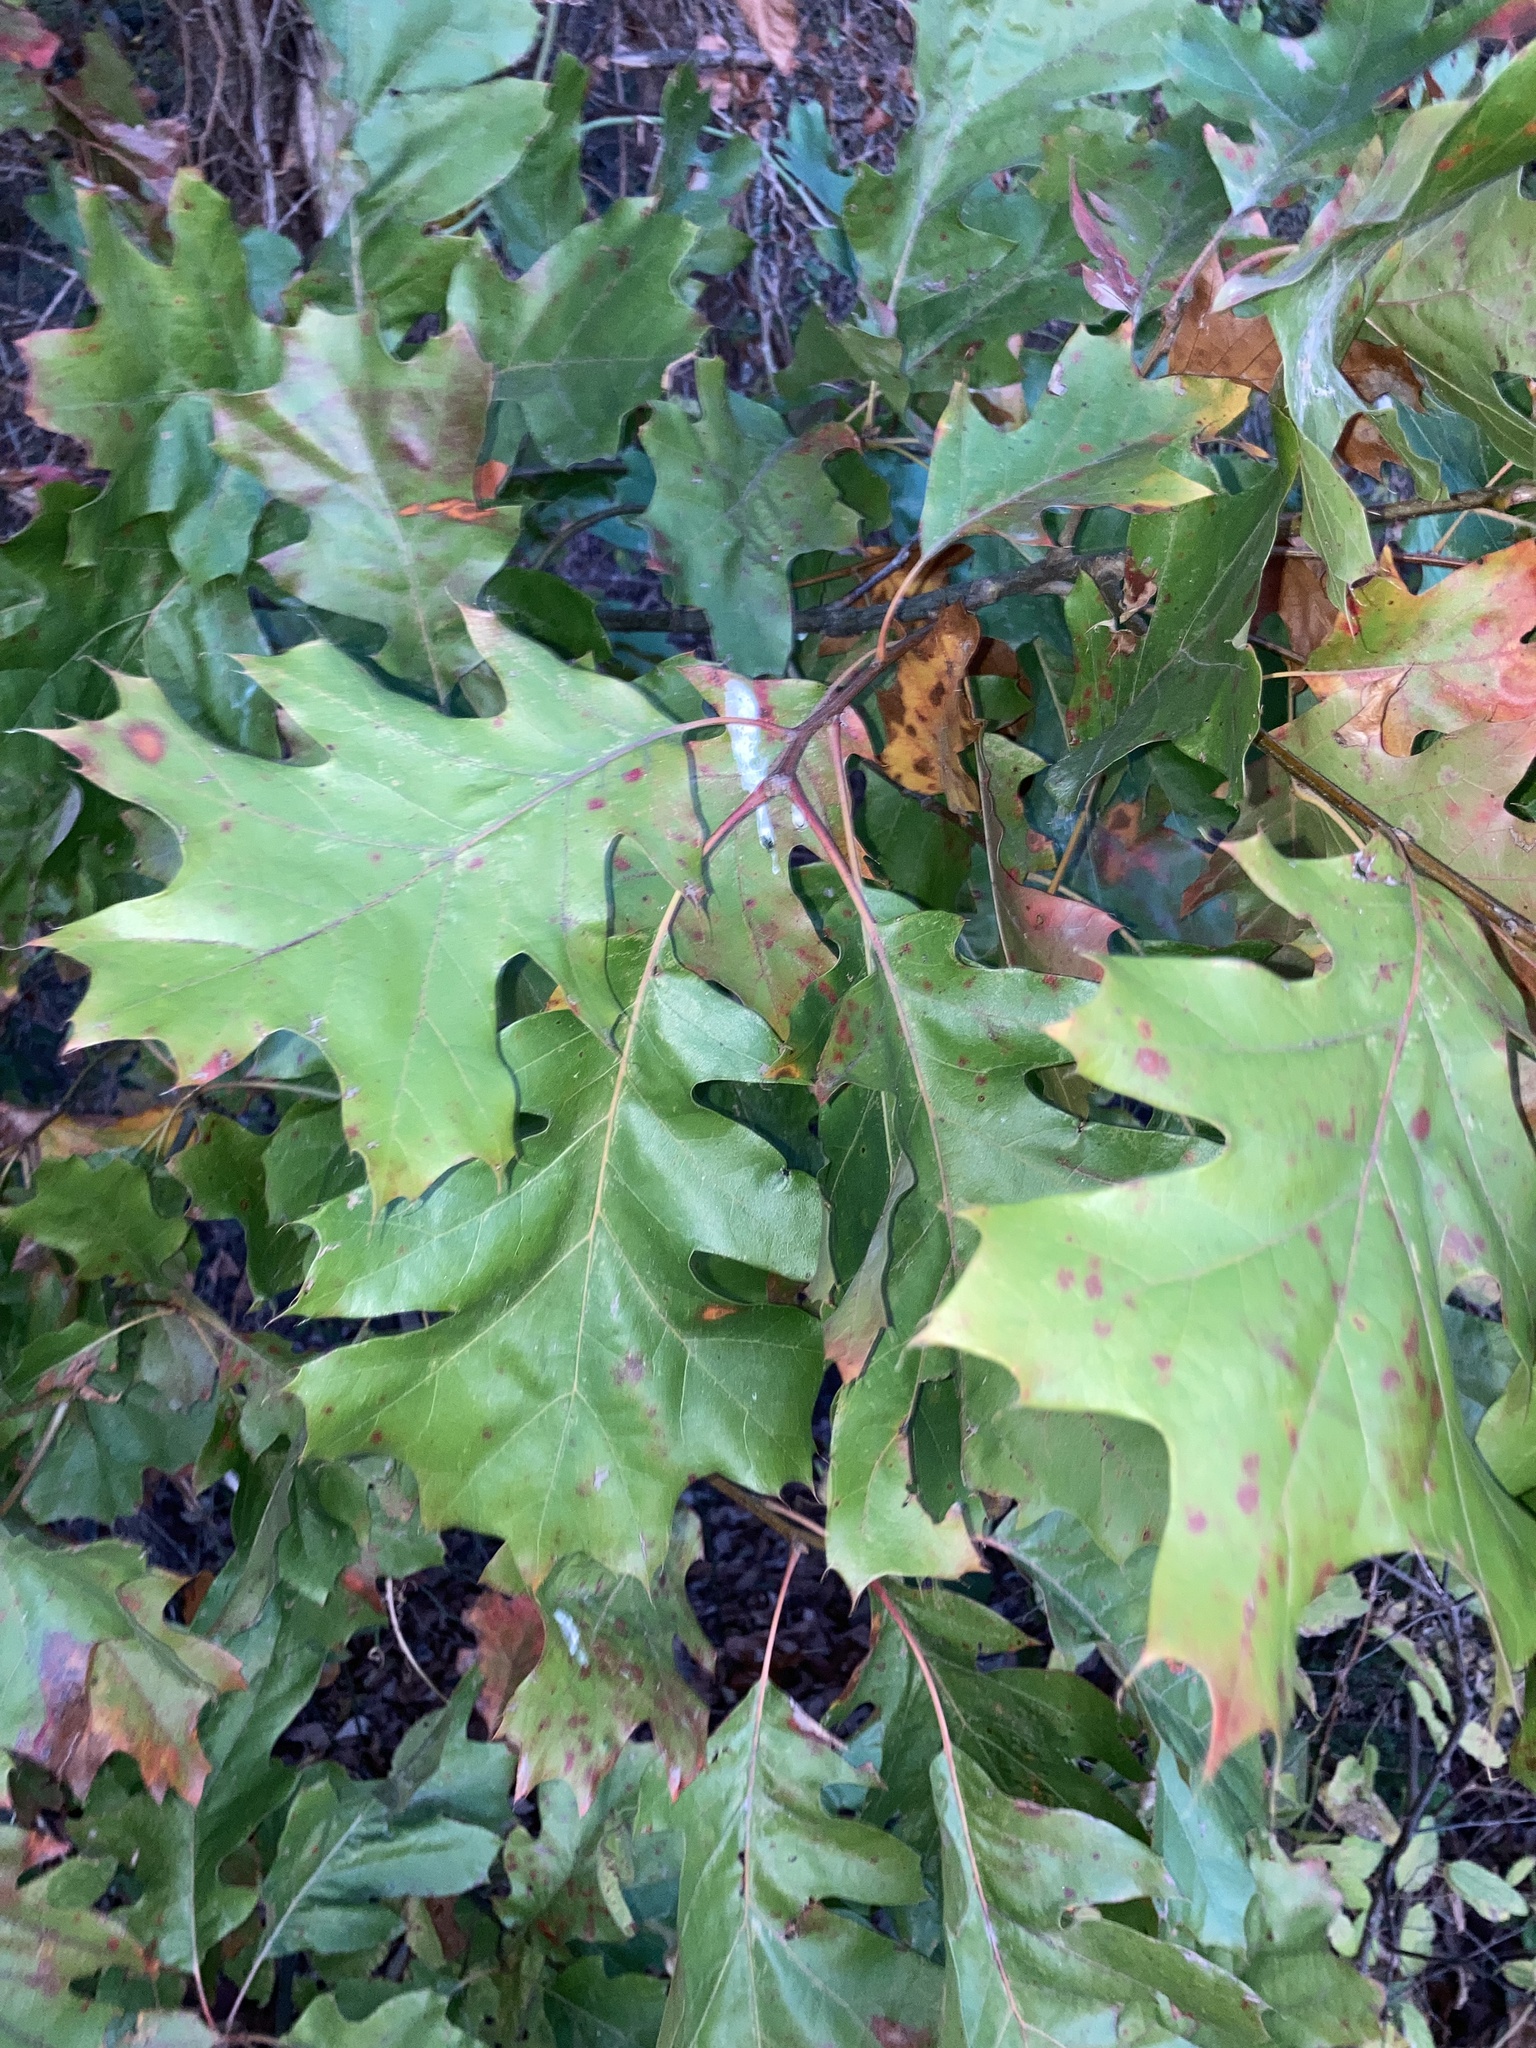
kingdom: Plantae
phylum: Tracheophyta
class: Magnoliopsida
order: Fagales
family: Fagaceae
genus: Quercus
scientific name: Quercus velutina
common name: Black oak
